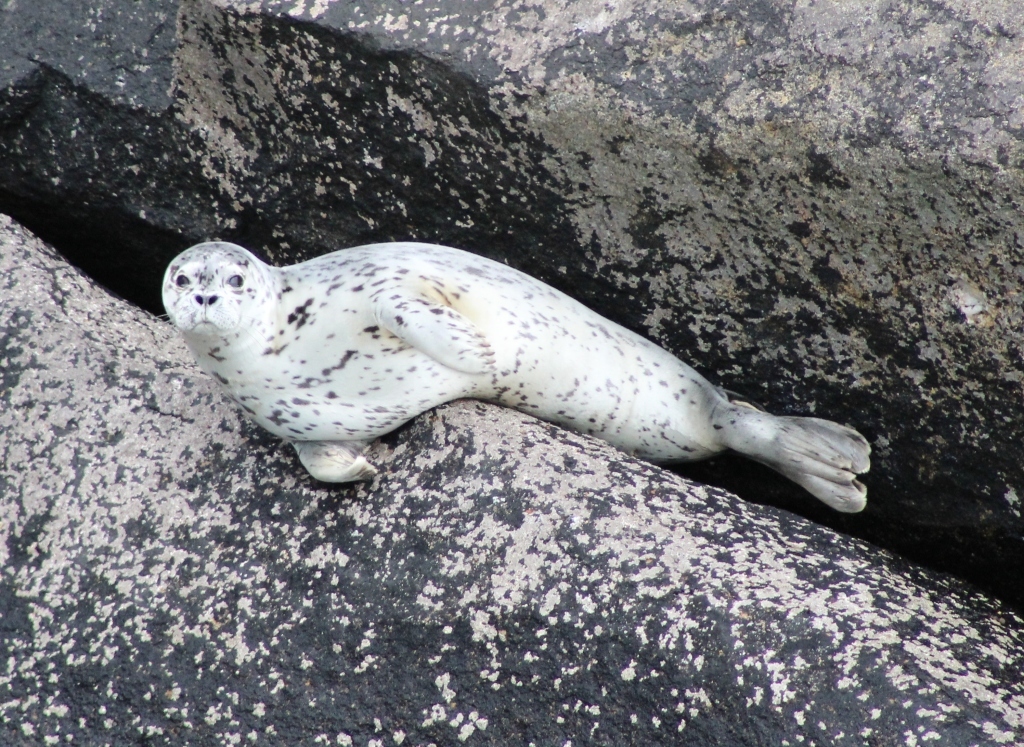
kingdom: Animalia
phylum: Chordata
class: Mammalia
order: Carnivora
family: Phocidae
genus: Phoca
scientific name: Phoca vitulina
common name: Harbor seal
